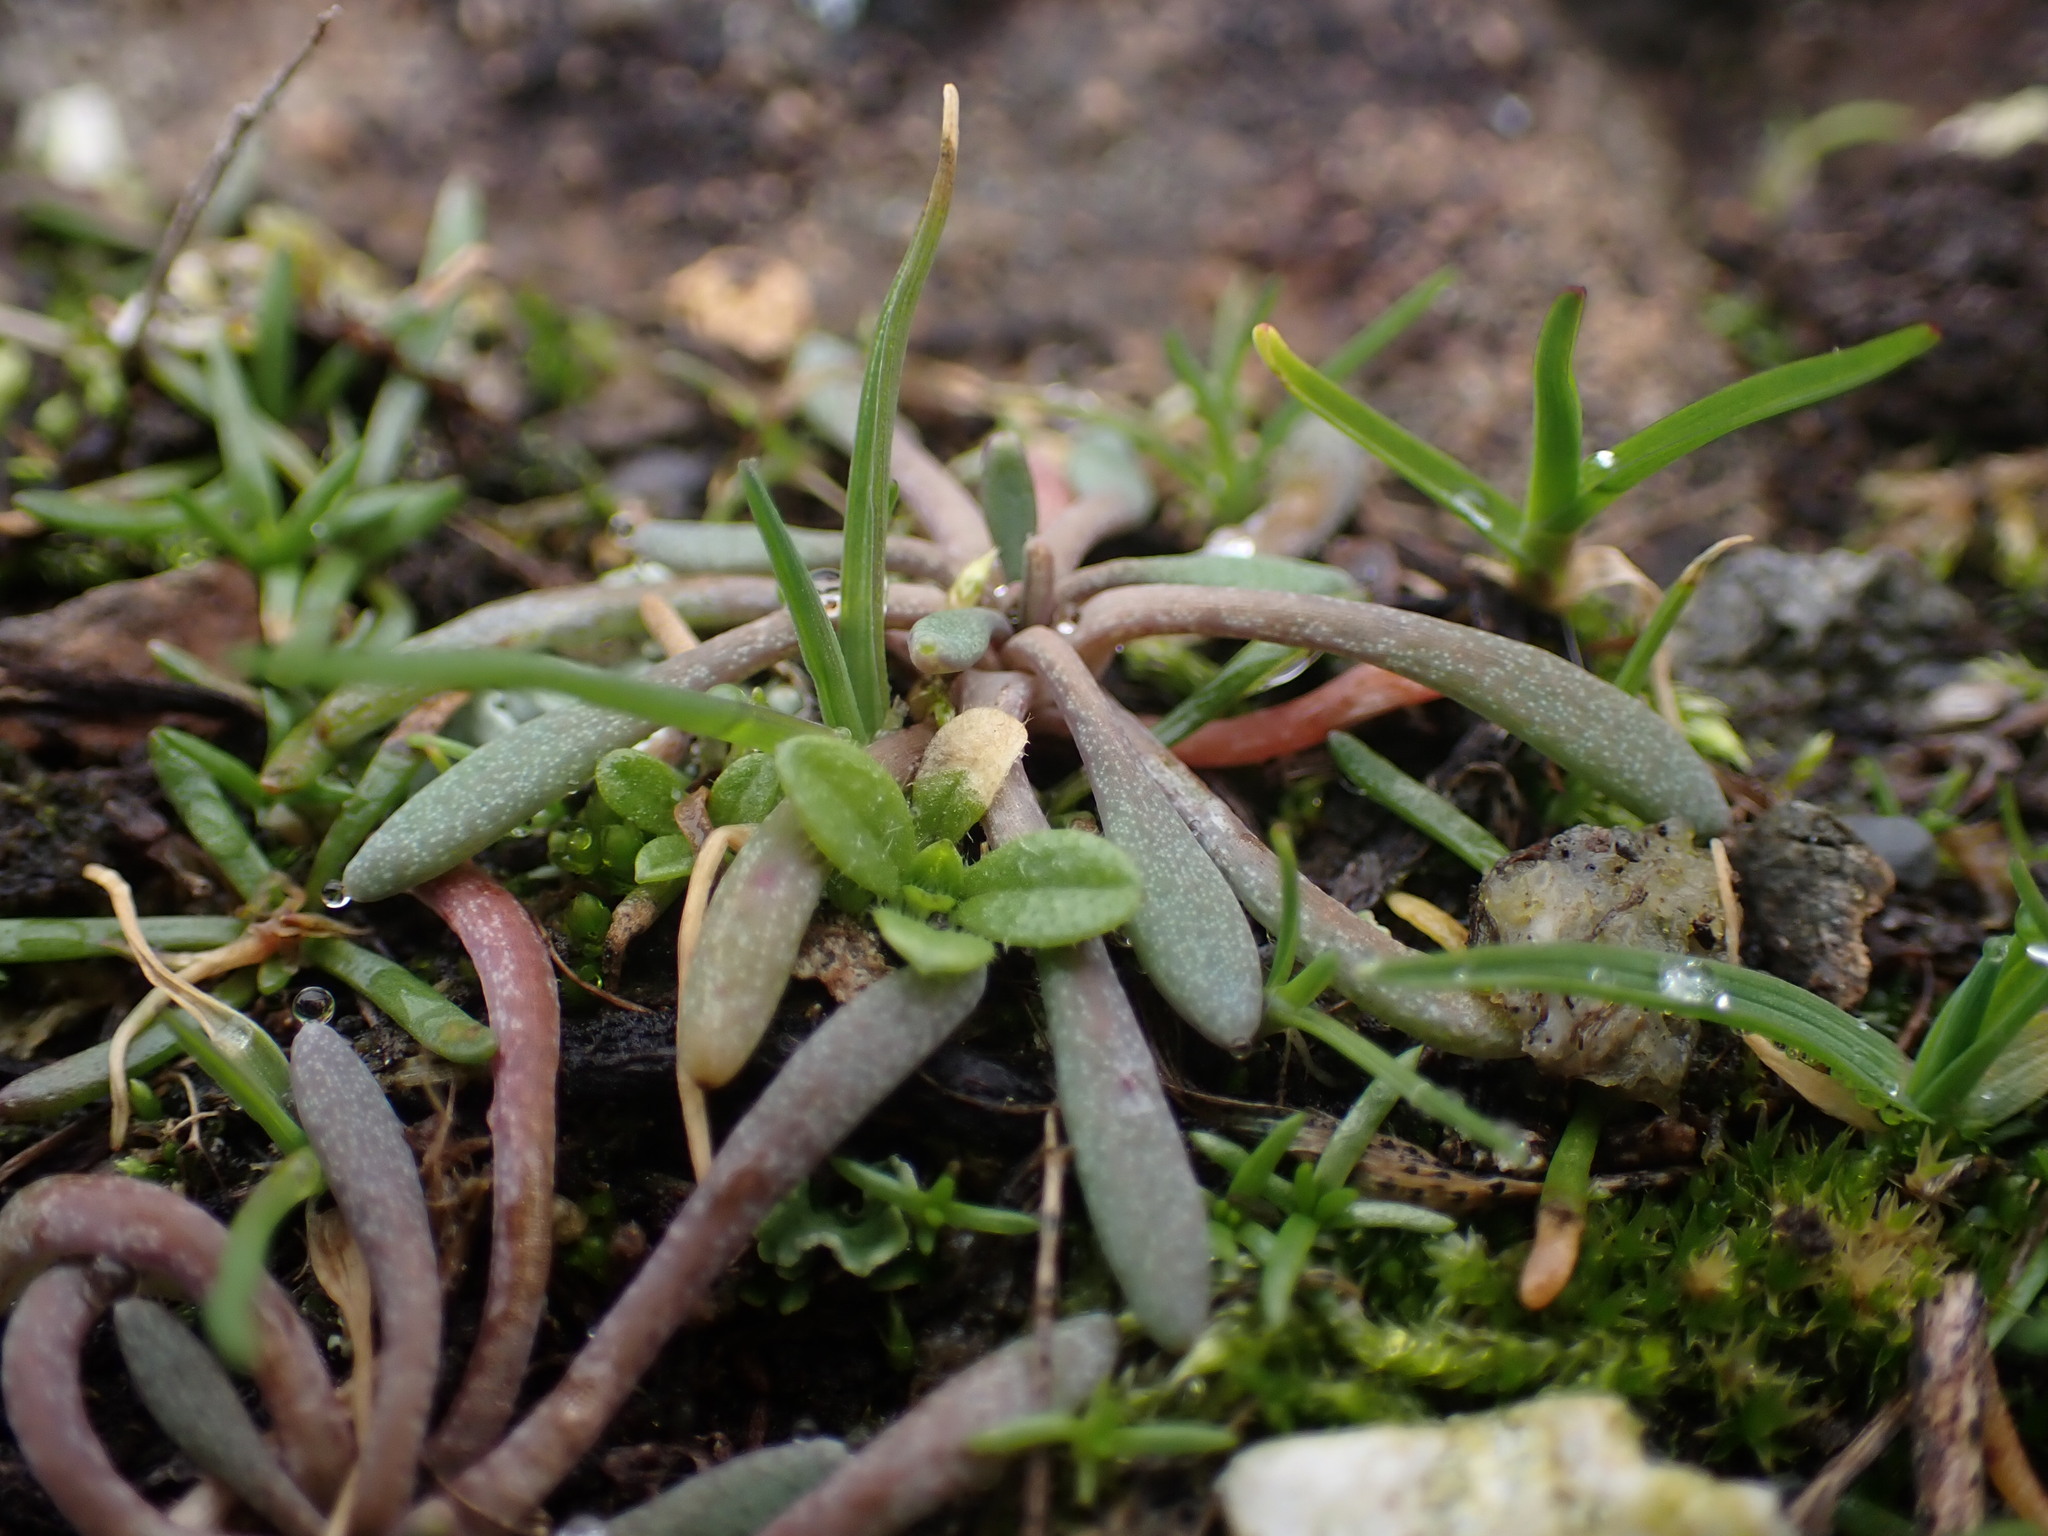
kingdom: Plantae
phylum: Tracheophyta
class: Magnoliopsida
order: Caryophyllales
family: Montiaceae
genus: Claytonia
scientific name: Claytonia exigua
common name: Pale spring beauty
